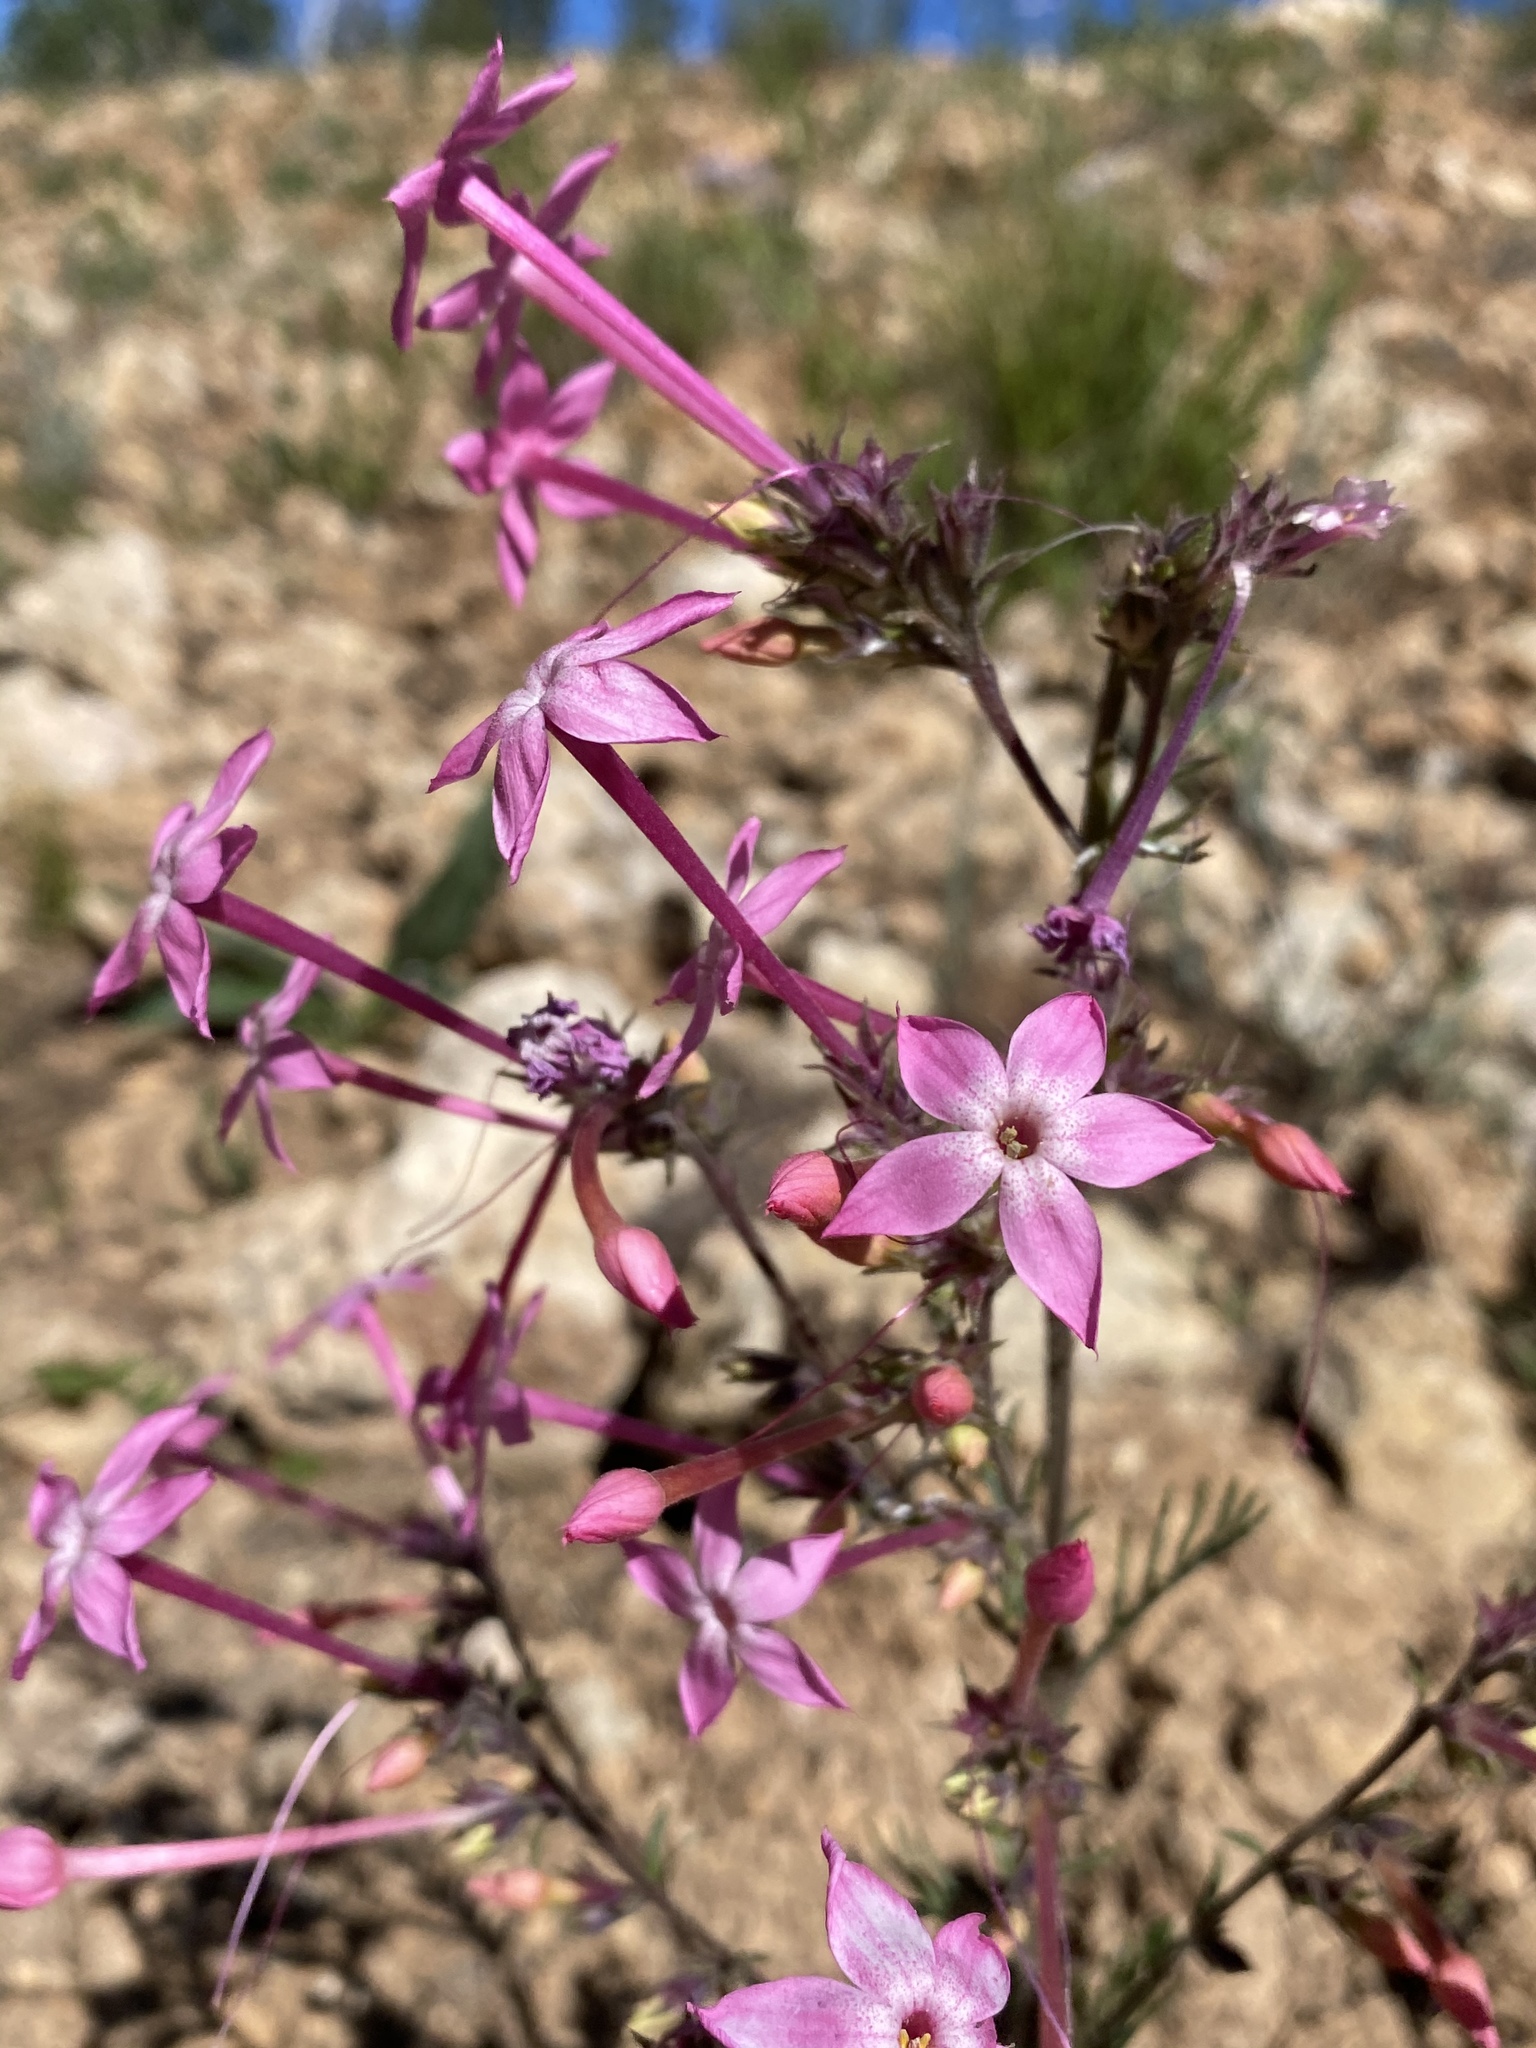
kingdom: Plantae
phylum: Tracheophyta
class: Magnoliopsida
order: Ericales
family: Polemoniaceae
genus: Ipomopsis
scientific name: Ipomopsis tenuituba
